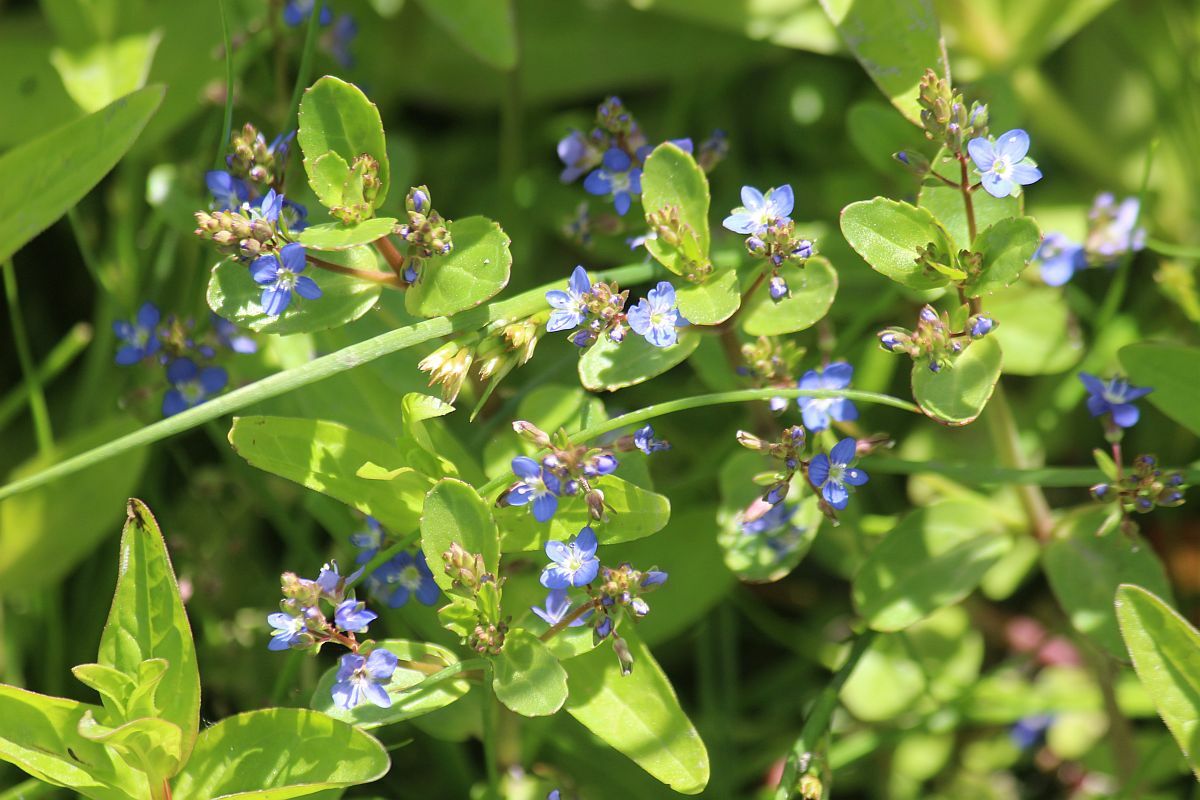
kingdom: Plantae
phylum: Tracheophyta
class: Magnoliopsida
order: Lamiales
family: Plantaginaceae
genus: Veronica
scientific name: Veronica beccabunga
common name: Brooklime
